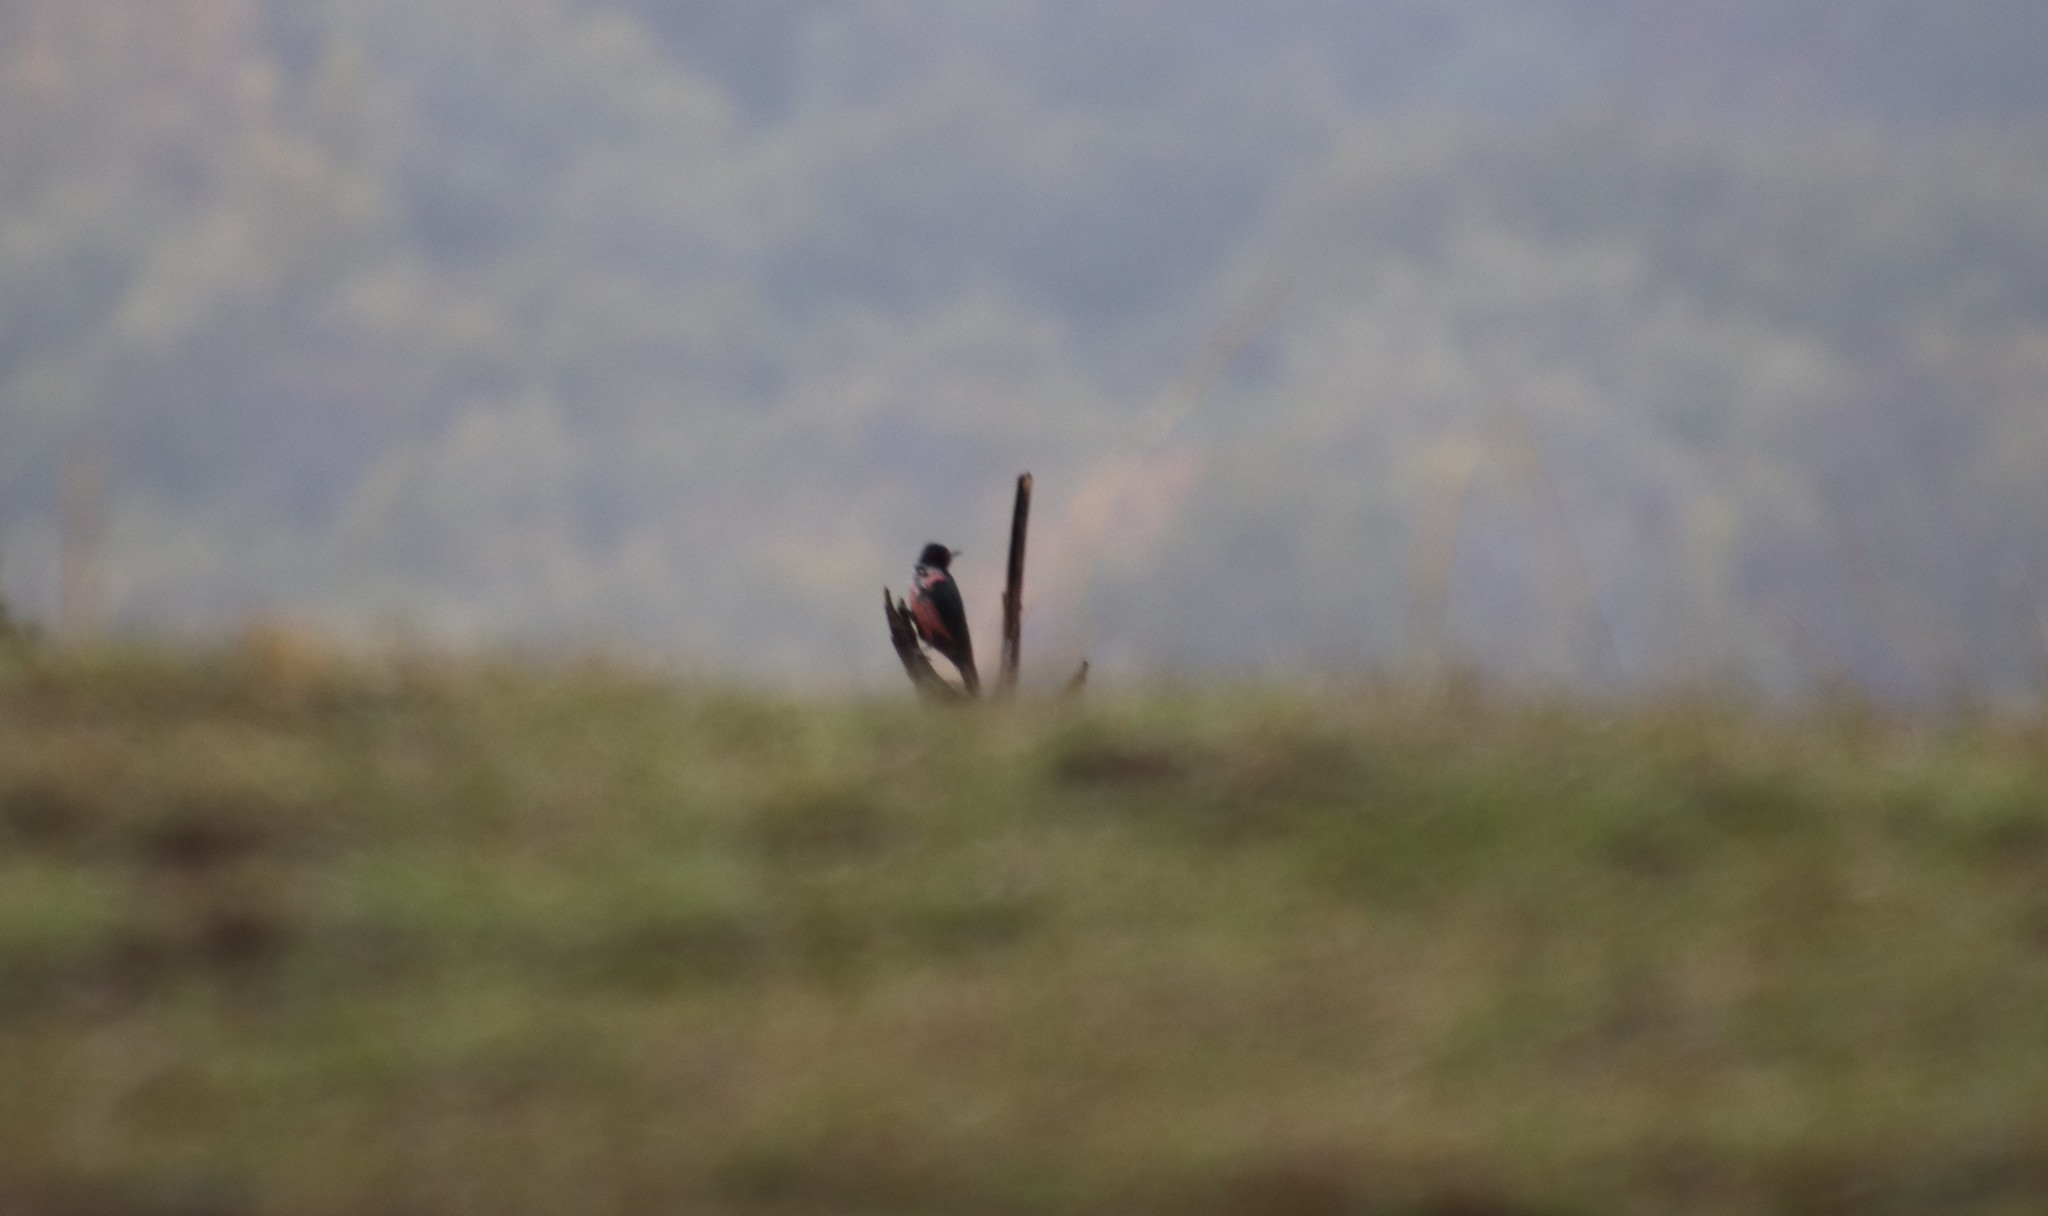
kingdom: Animalia
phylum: Chordata
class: Aves
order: Piciformes
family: Picidae
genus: Melanerpes
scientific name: Melanerpes lewis
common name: Lewis's woodpecker
